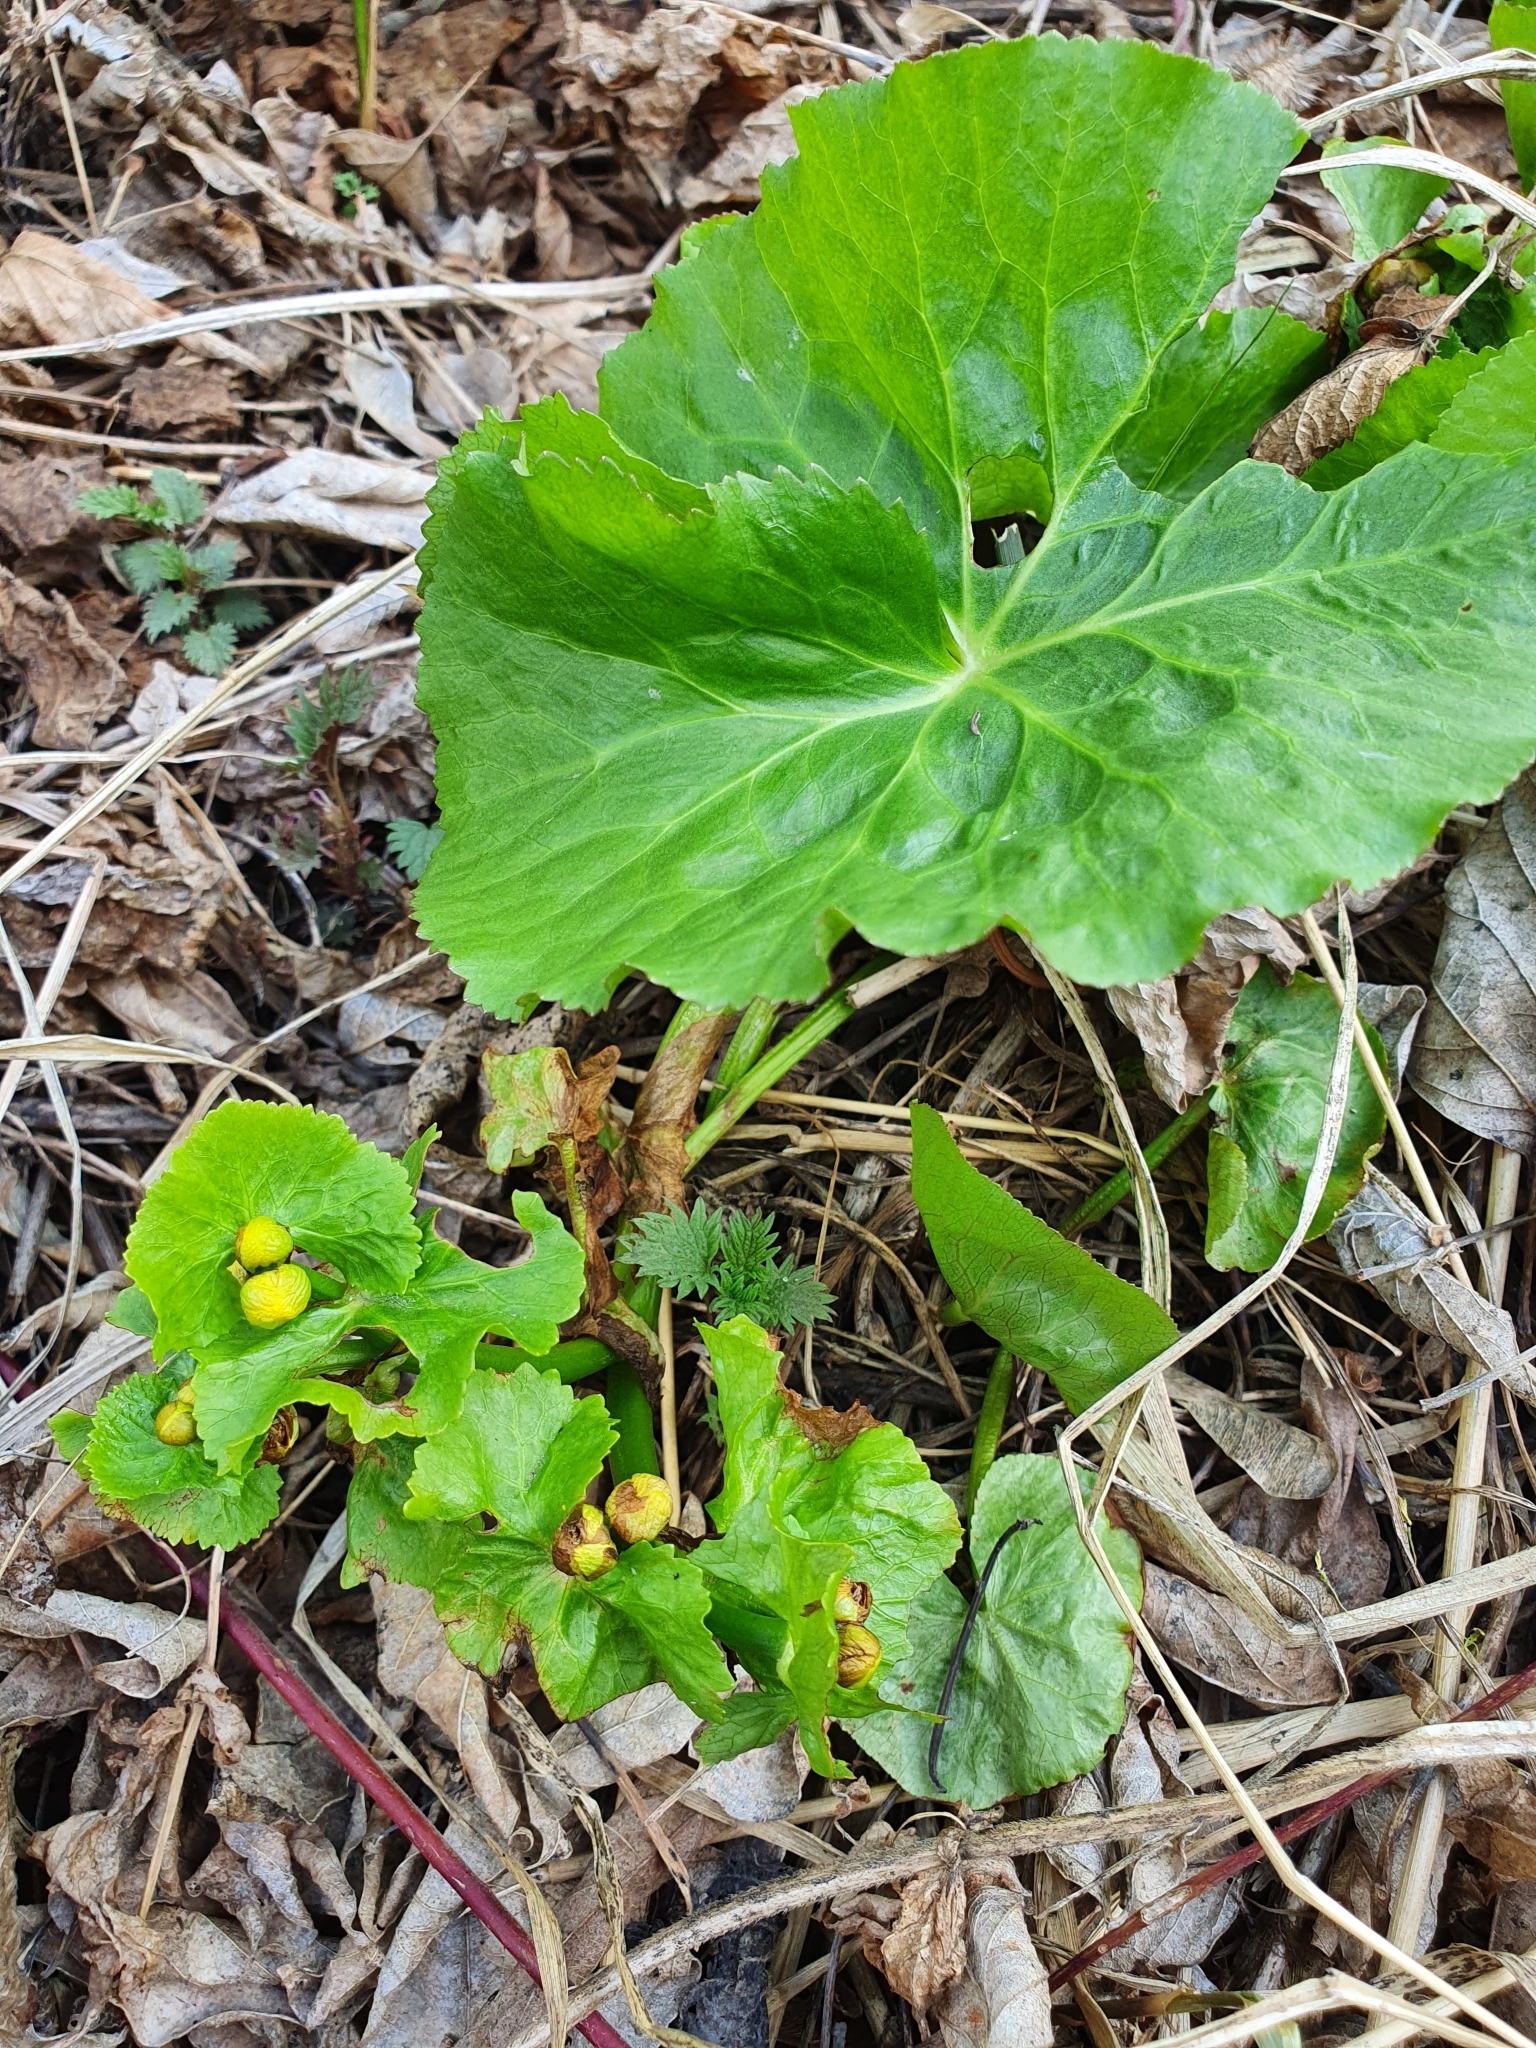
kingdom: Plantae
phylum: Tracheophyta
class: Magnoliopsida
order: Ranunculales
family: Ranunculaceae
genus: Caltha
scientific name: Caltha palustris
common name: Marsh marigold
